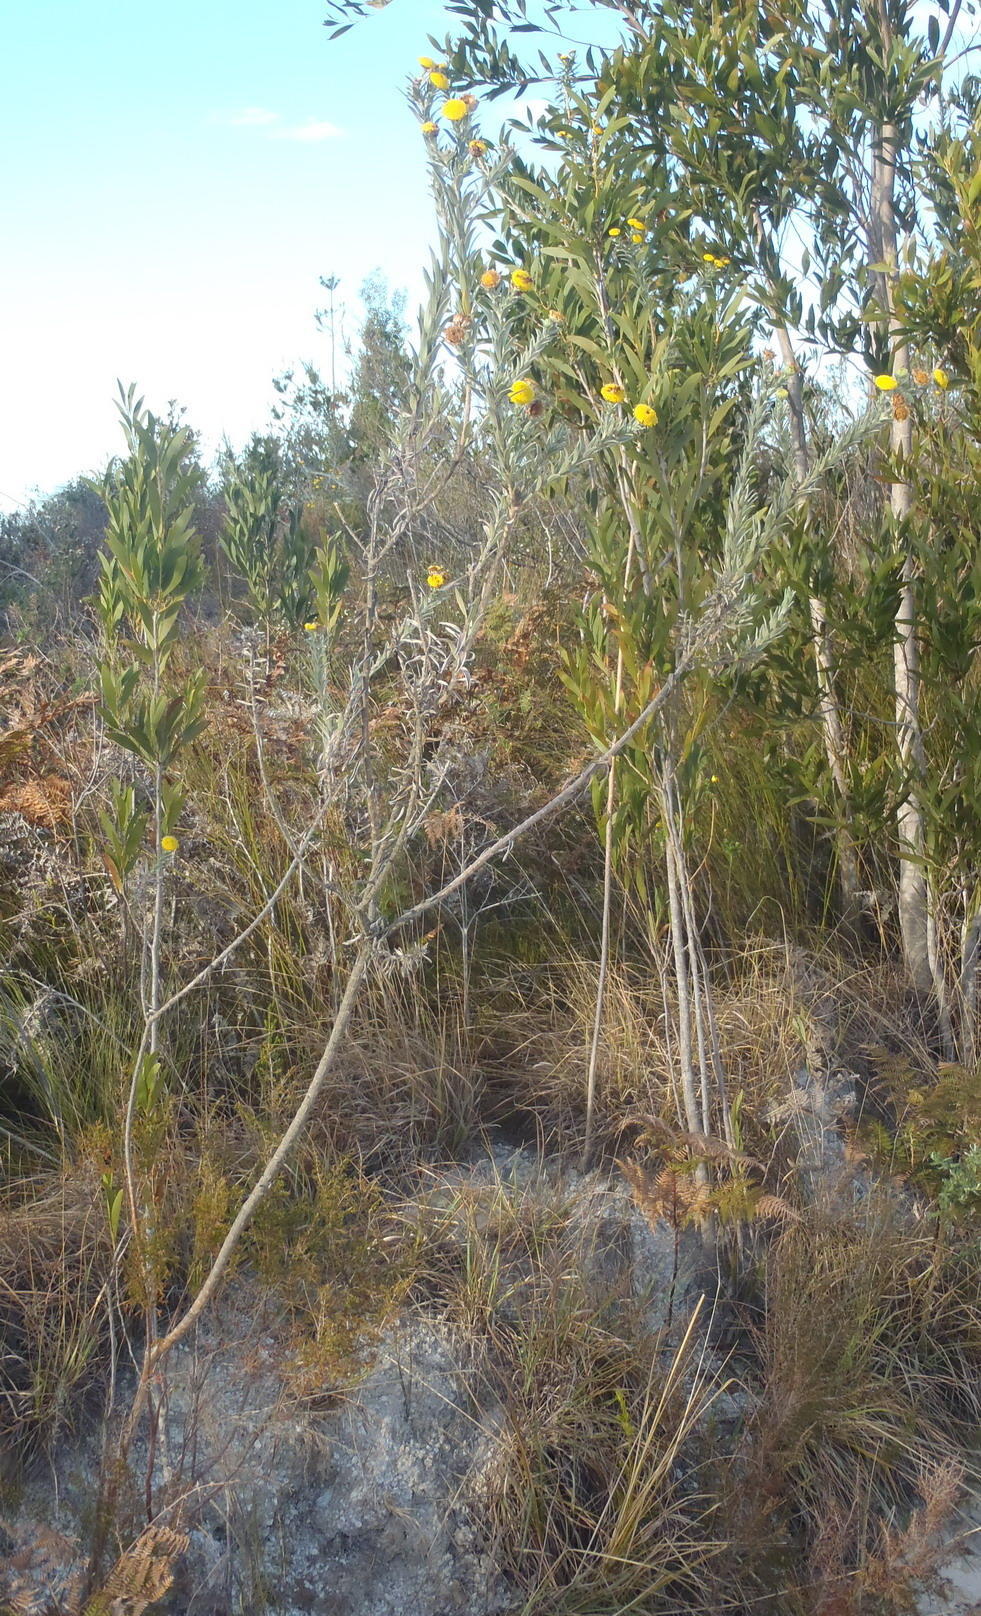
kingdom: Plantae
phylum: Tracheophyta
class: Magnoliopsida
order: Asterales
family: Asteraceae
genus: Schistostephium
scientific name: Schistostephium umbellatum
